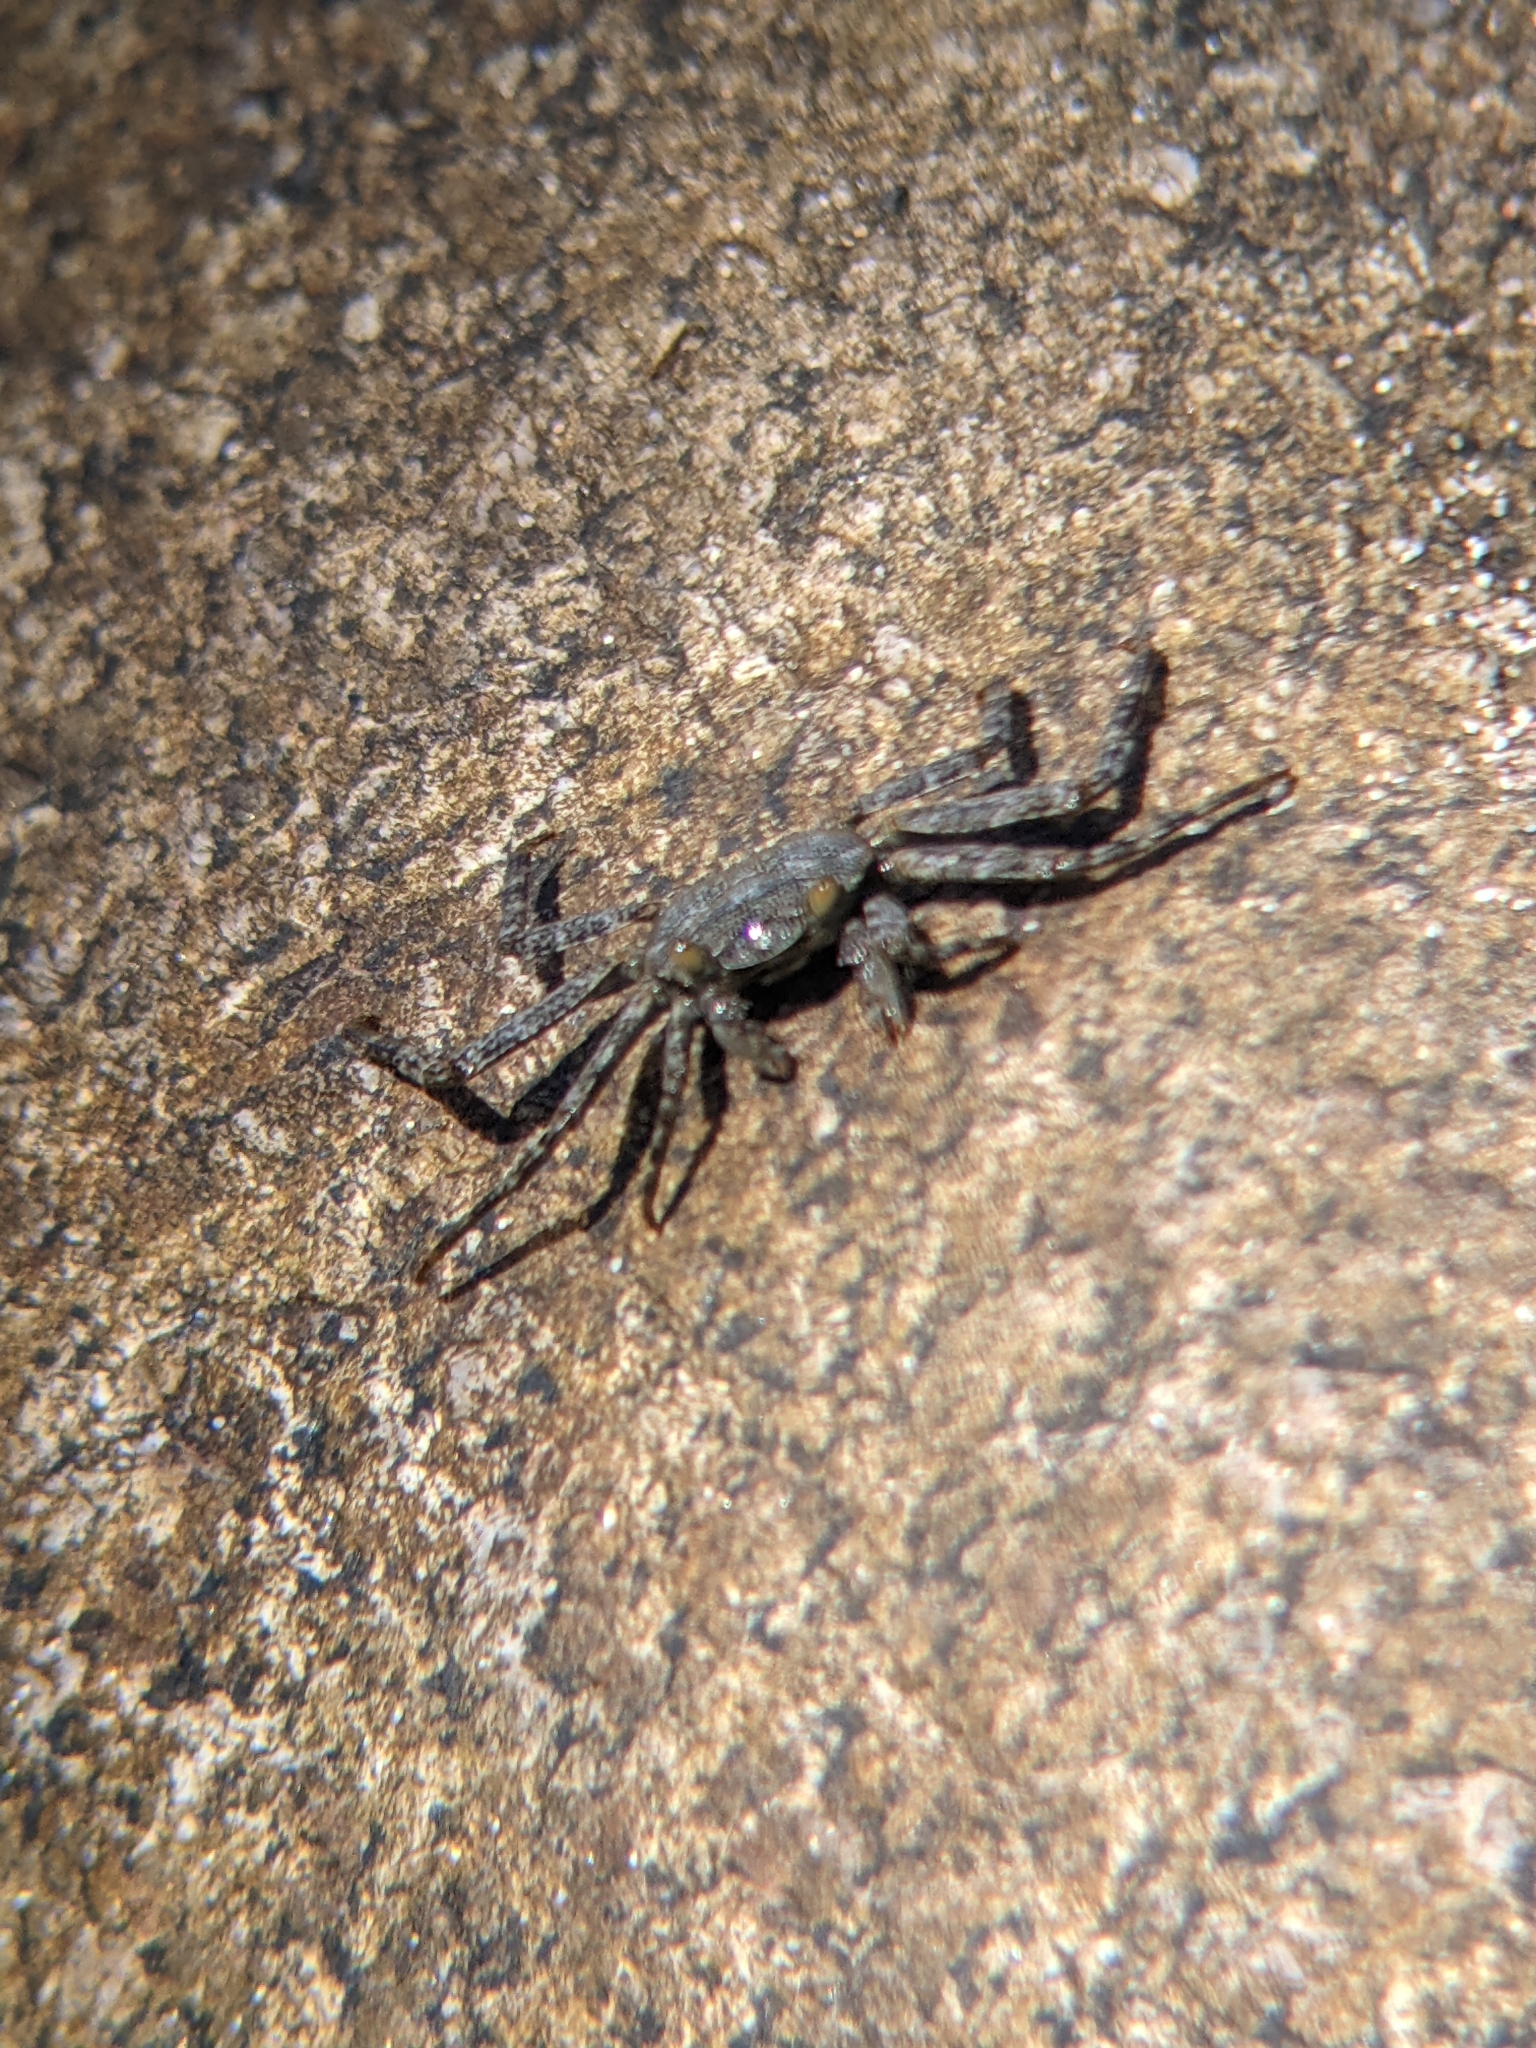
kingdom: Animalia
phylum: Arthropoda
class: Malacostraca
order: Decapoda
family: Grapsidae
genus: Grapsus
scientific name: Grapsus grapsus
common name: Sally lightfoot
